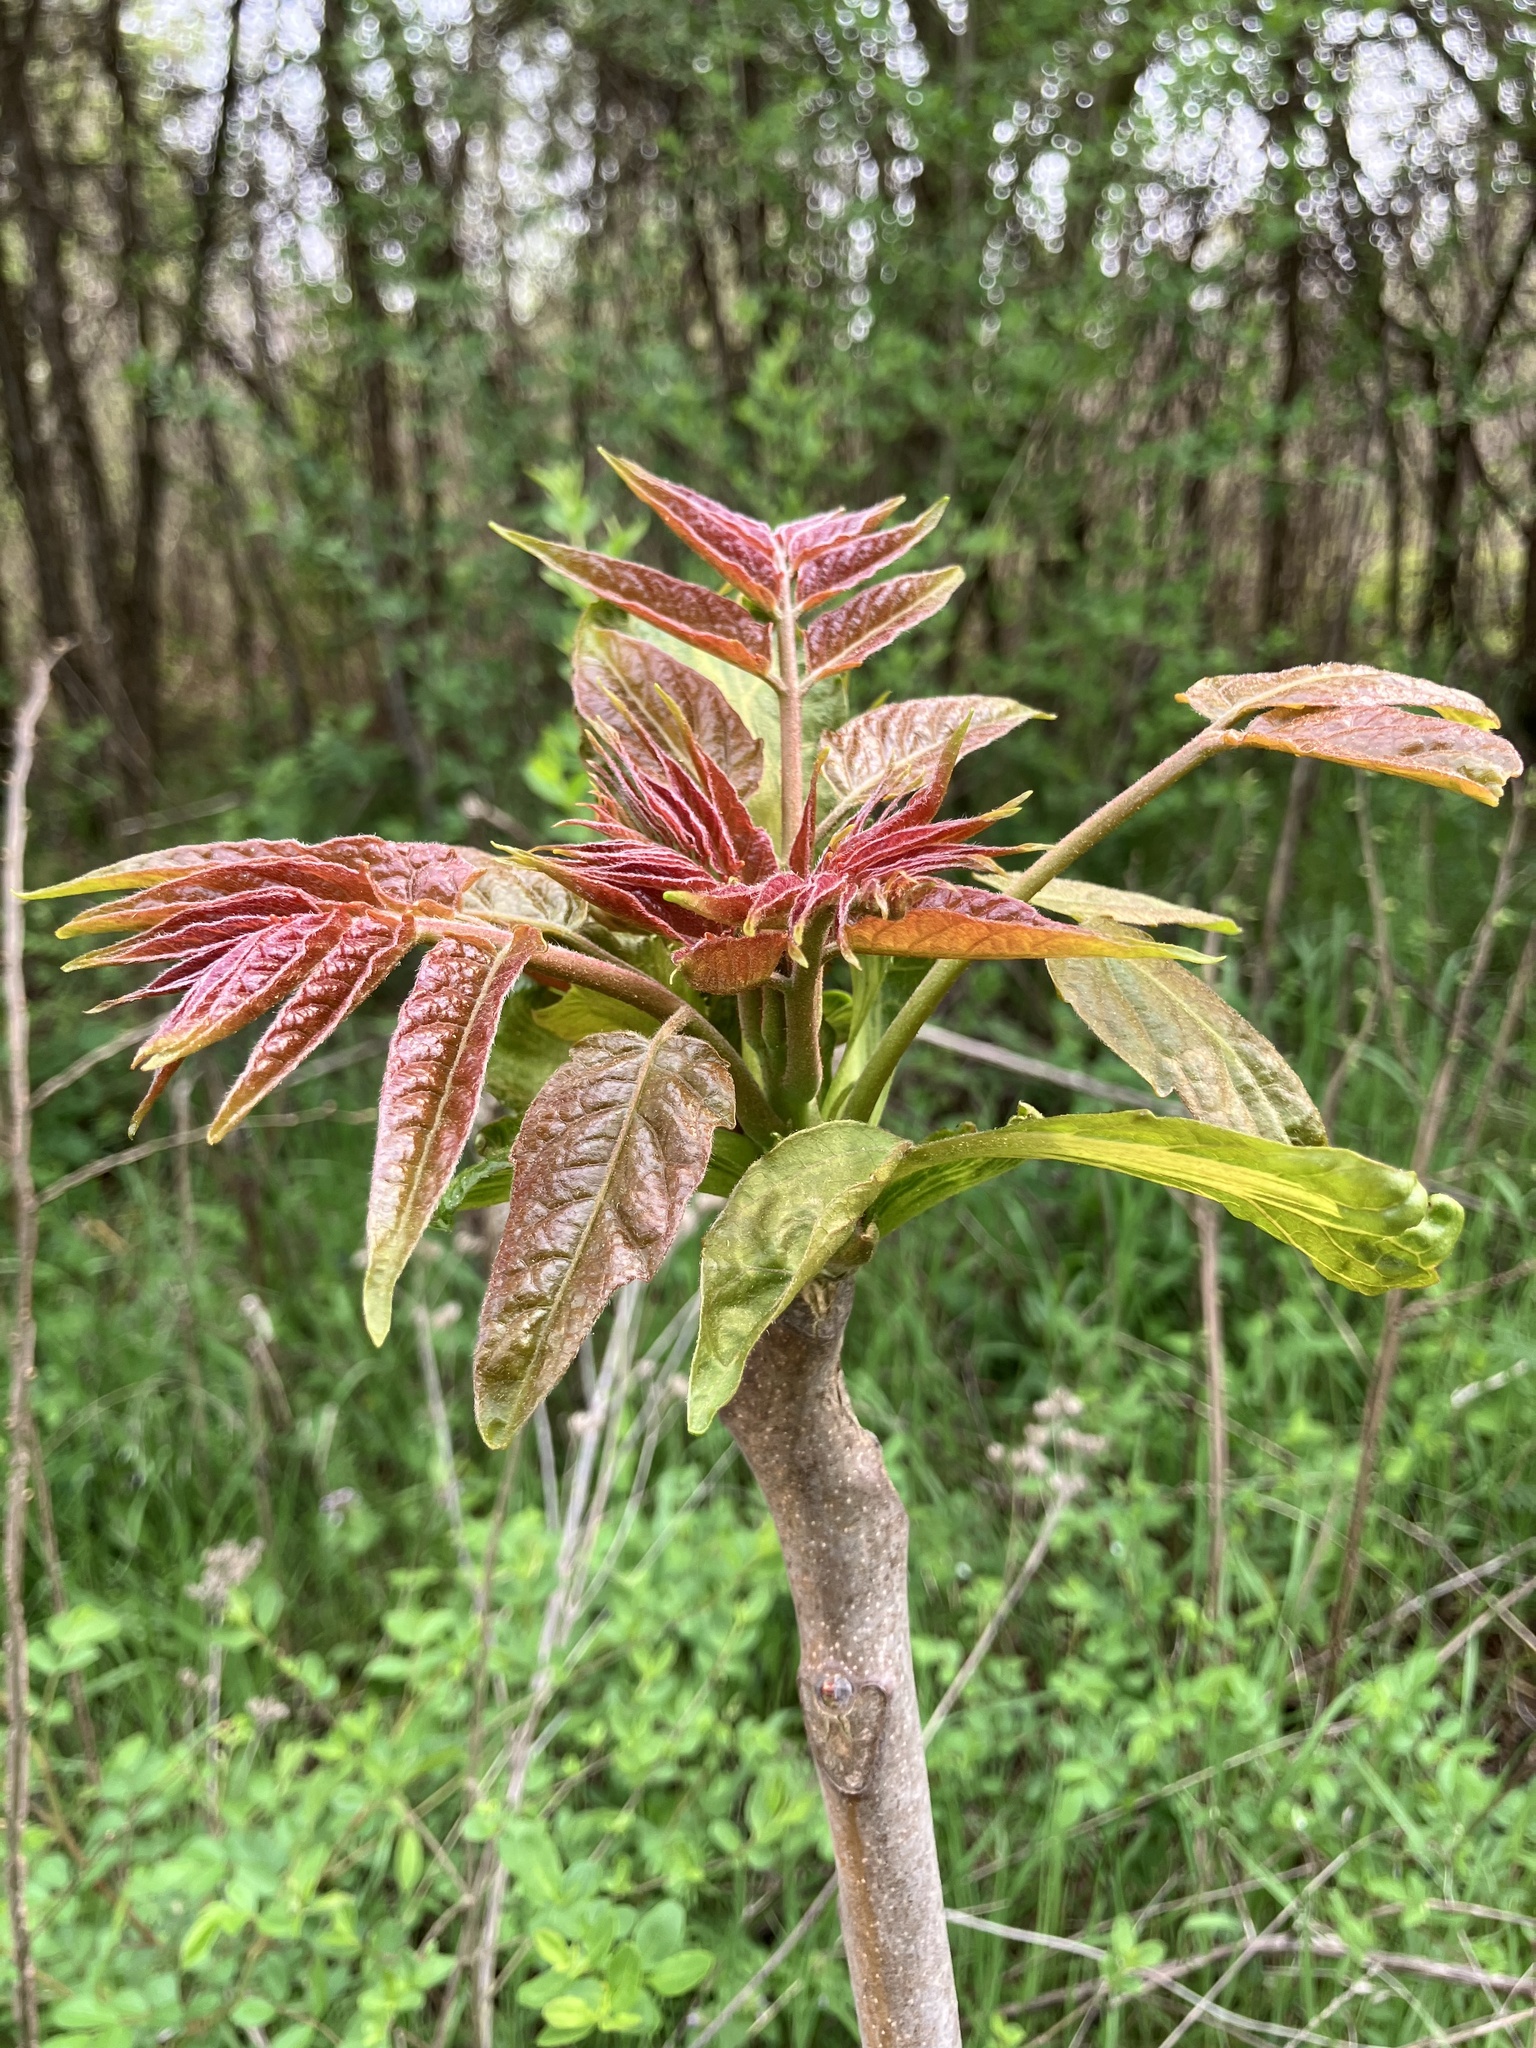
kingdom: Plantae
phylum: Tracheophyta
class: Magnoliopsida
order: Sapindales
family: Simaroubaceae
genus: Ailanthus
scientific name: Ailanthus altissima
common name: Tree-of-heaven
